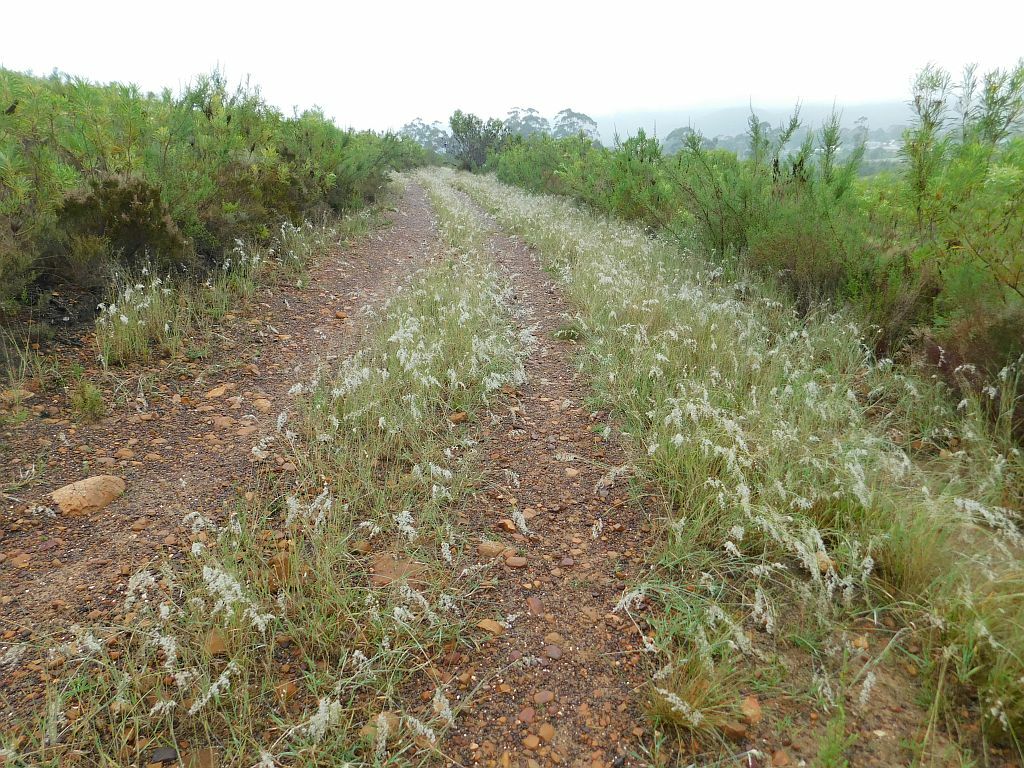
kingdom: Plantae
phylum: Tracheophyta
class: Liliopsida
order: Poales
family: Poaceae
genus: Melinis
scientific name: Melinis repens
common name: Rose natal grass
